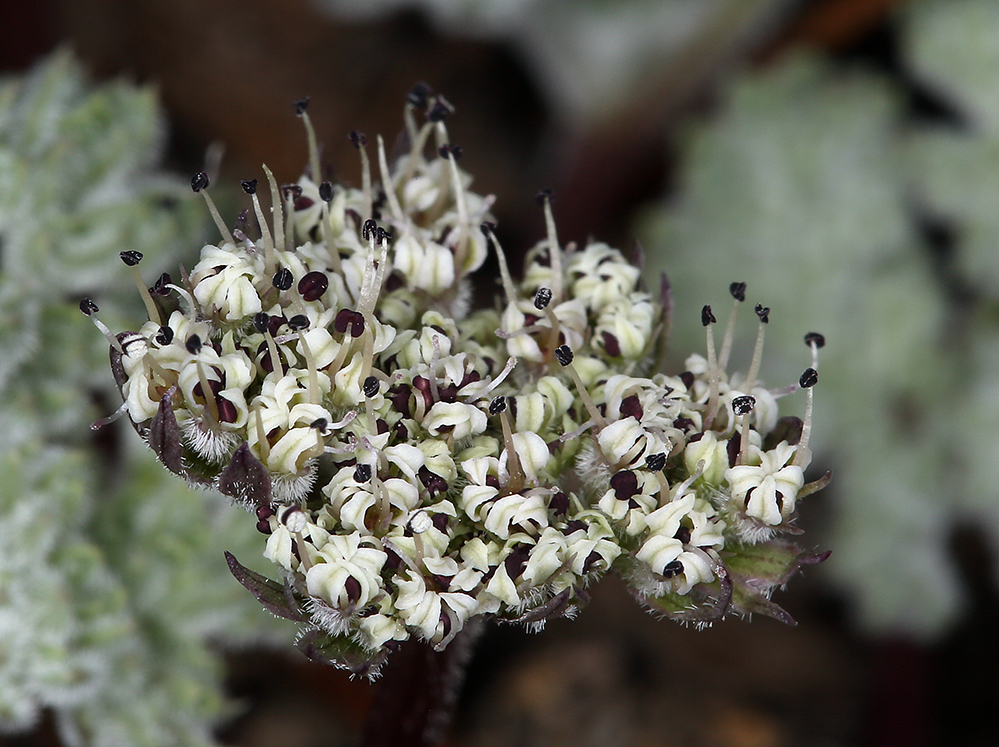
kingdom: Plantae
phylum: Tracheophyta
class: Magnoliopsida
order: Apiales
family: Apiaceae
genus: Oreonana
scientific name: Oreonana clementis
